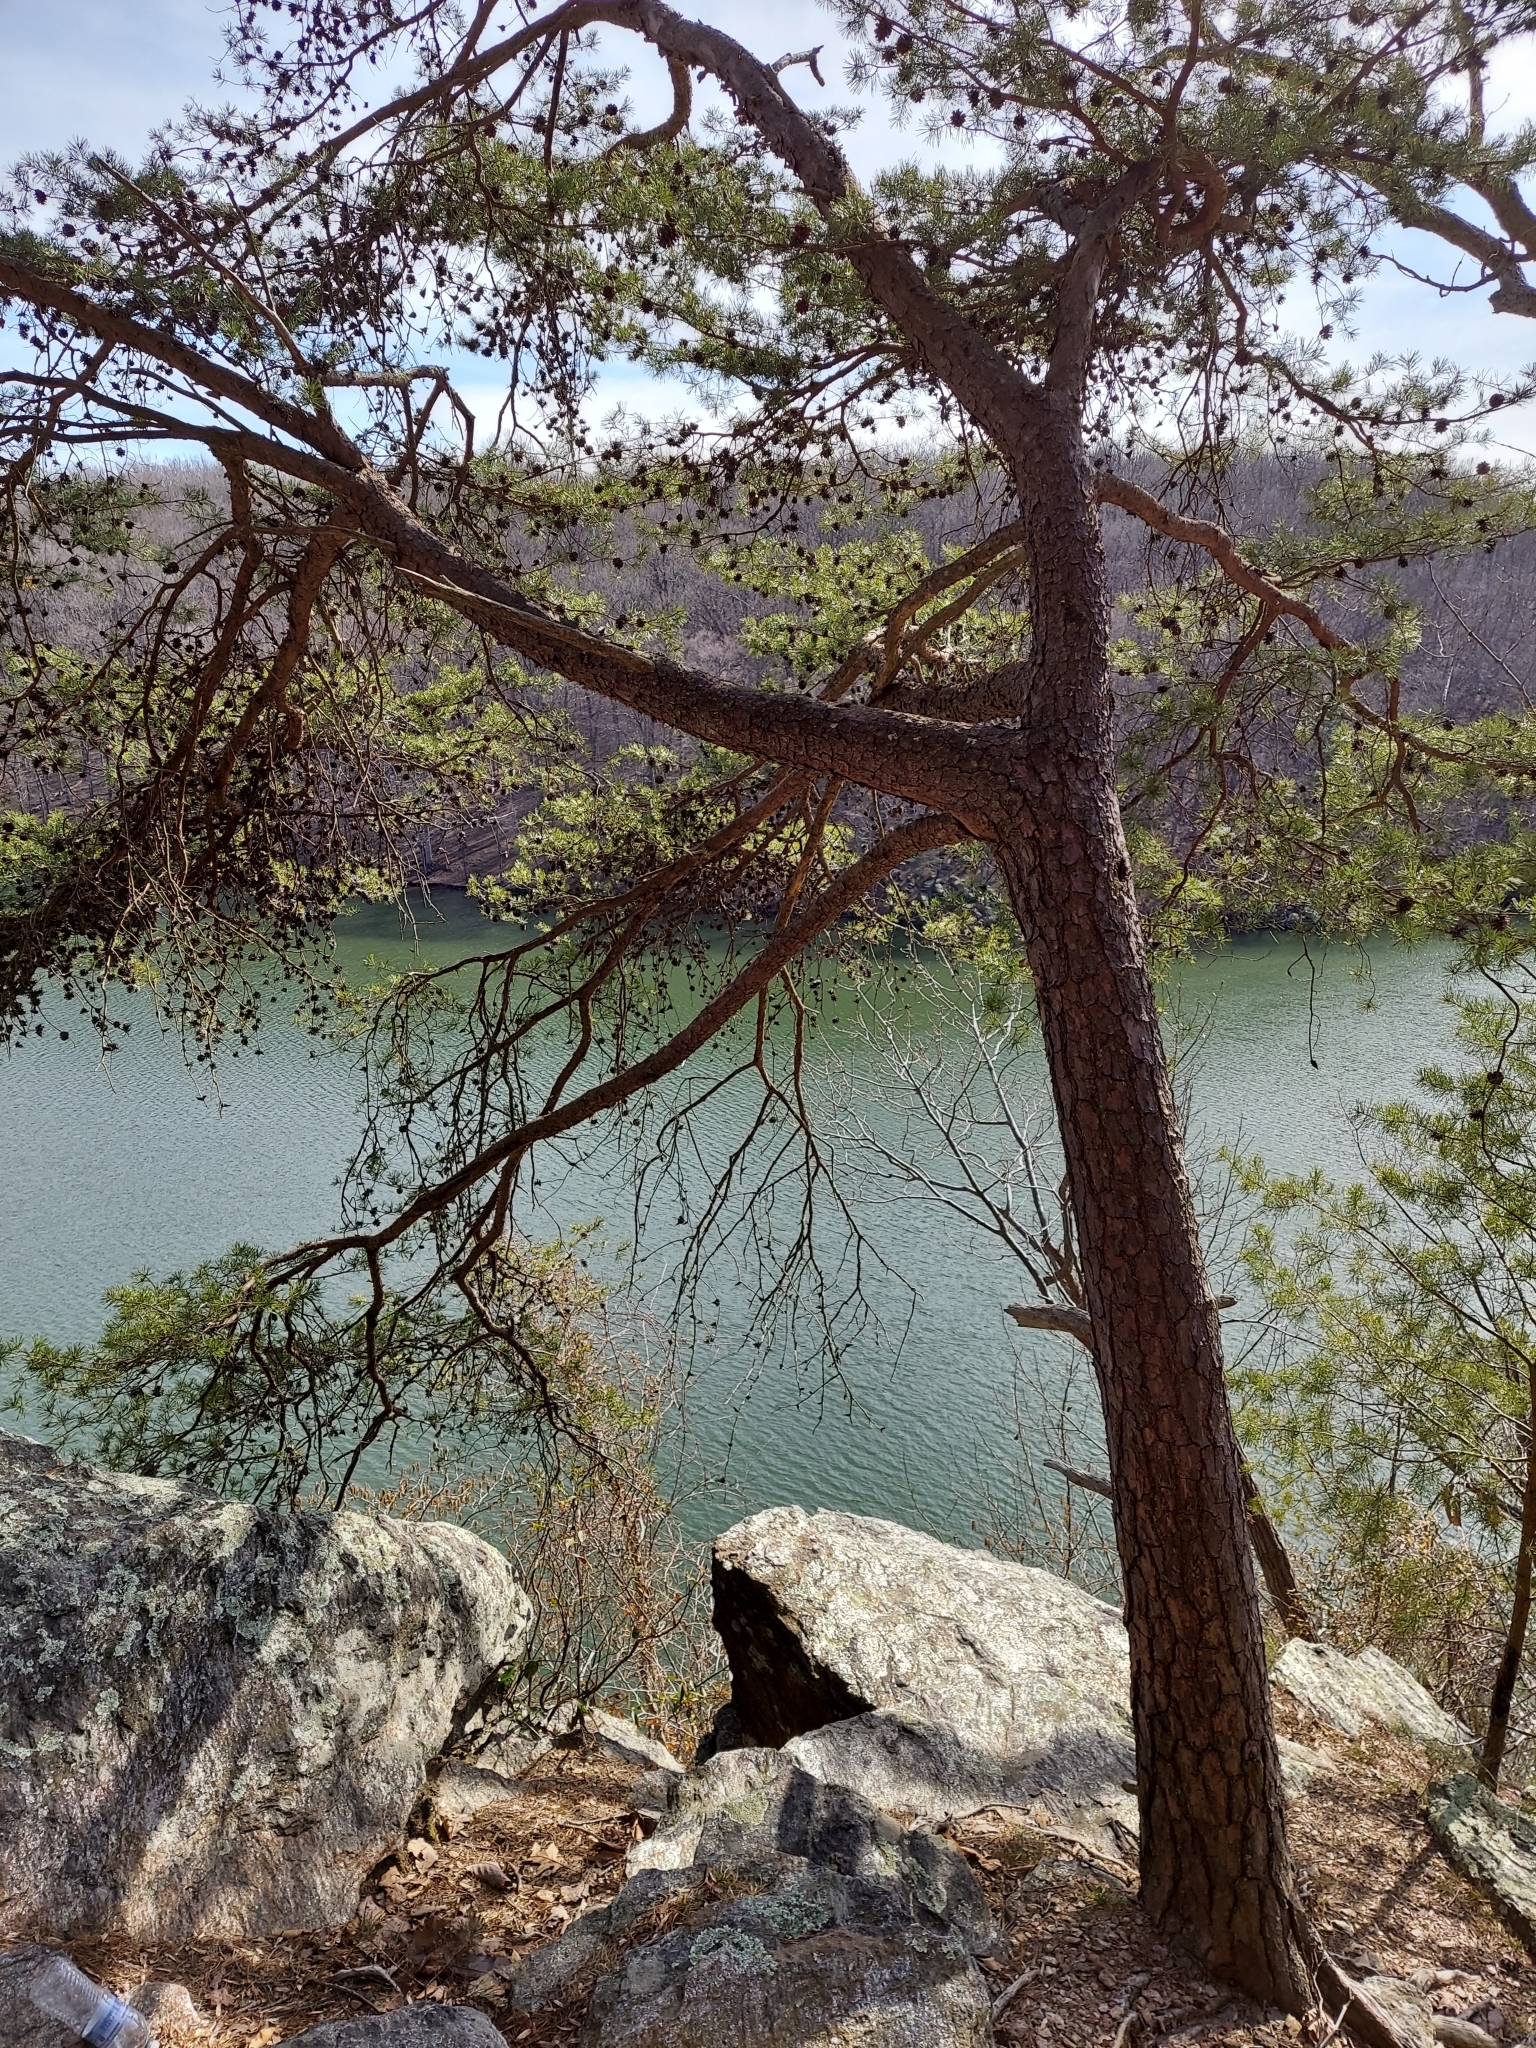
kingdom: Plantae
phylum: Tracheophyta
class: Pinopsida
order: Pinales
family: Pinaceae
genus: Pinus
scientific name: Pinus virginiana
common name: Scrub pine
